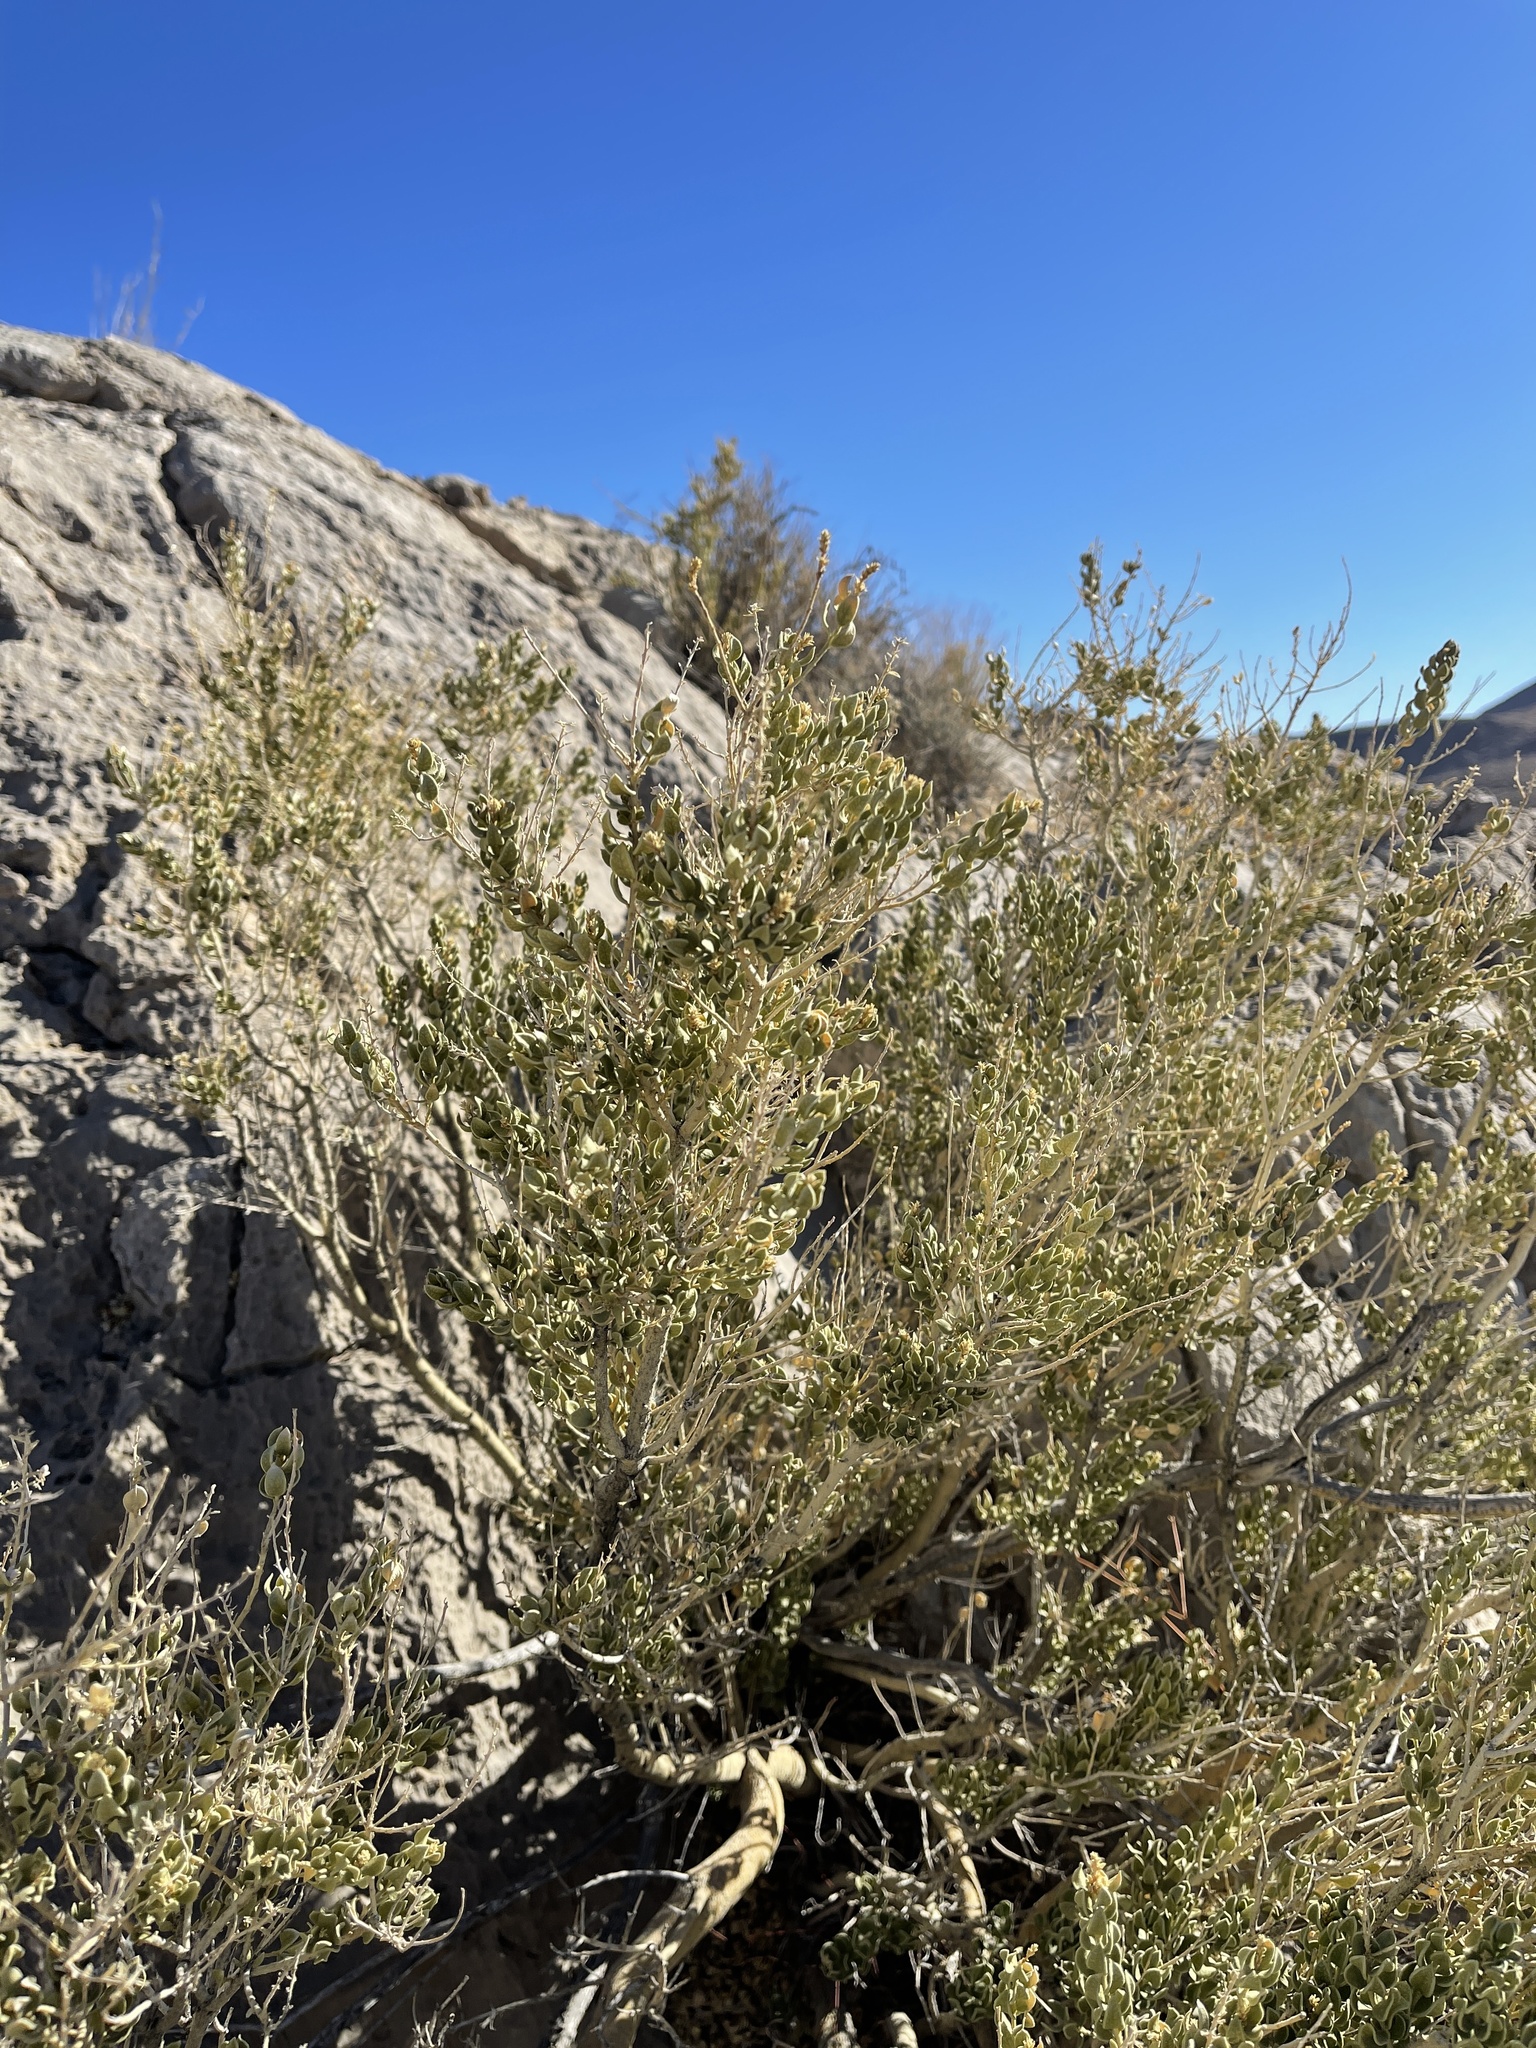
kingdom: Plantae
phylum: Tracheophyta
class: Magnoliopsida
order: Celastrales
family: Celastraceae
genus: Mortonia
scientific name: Mortonia utahensis
